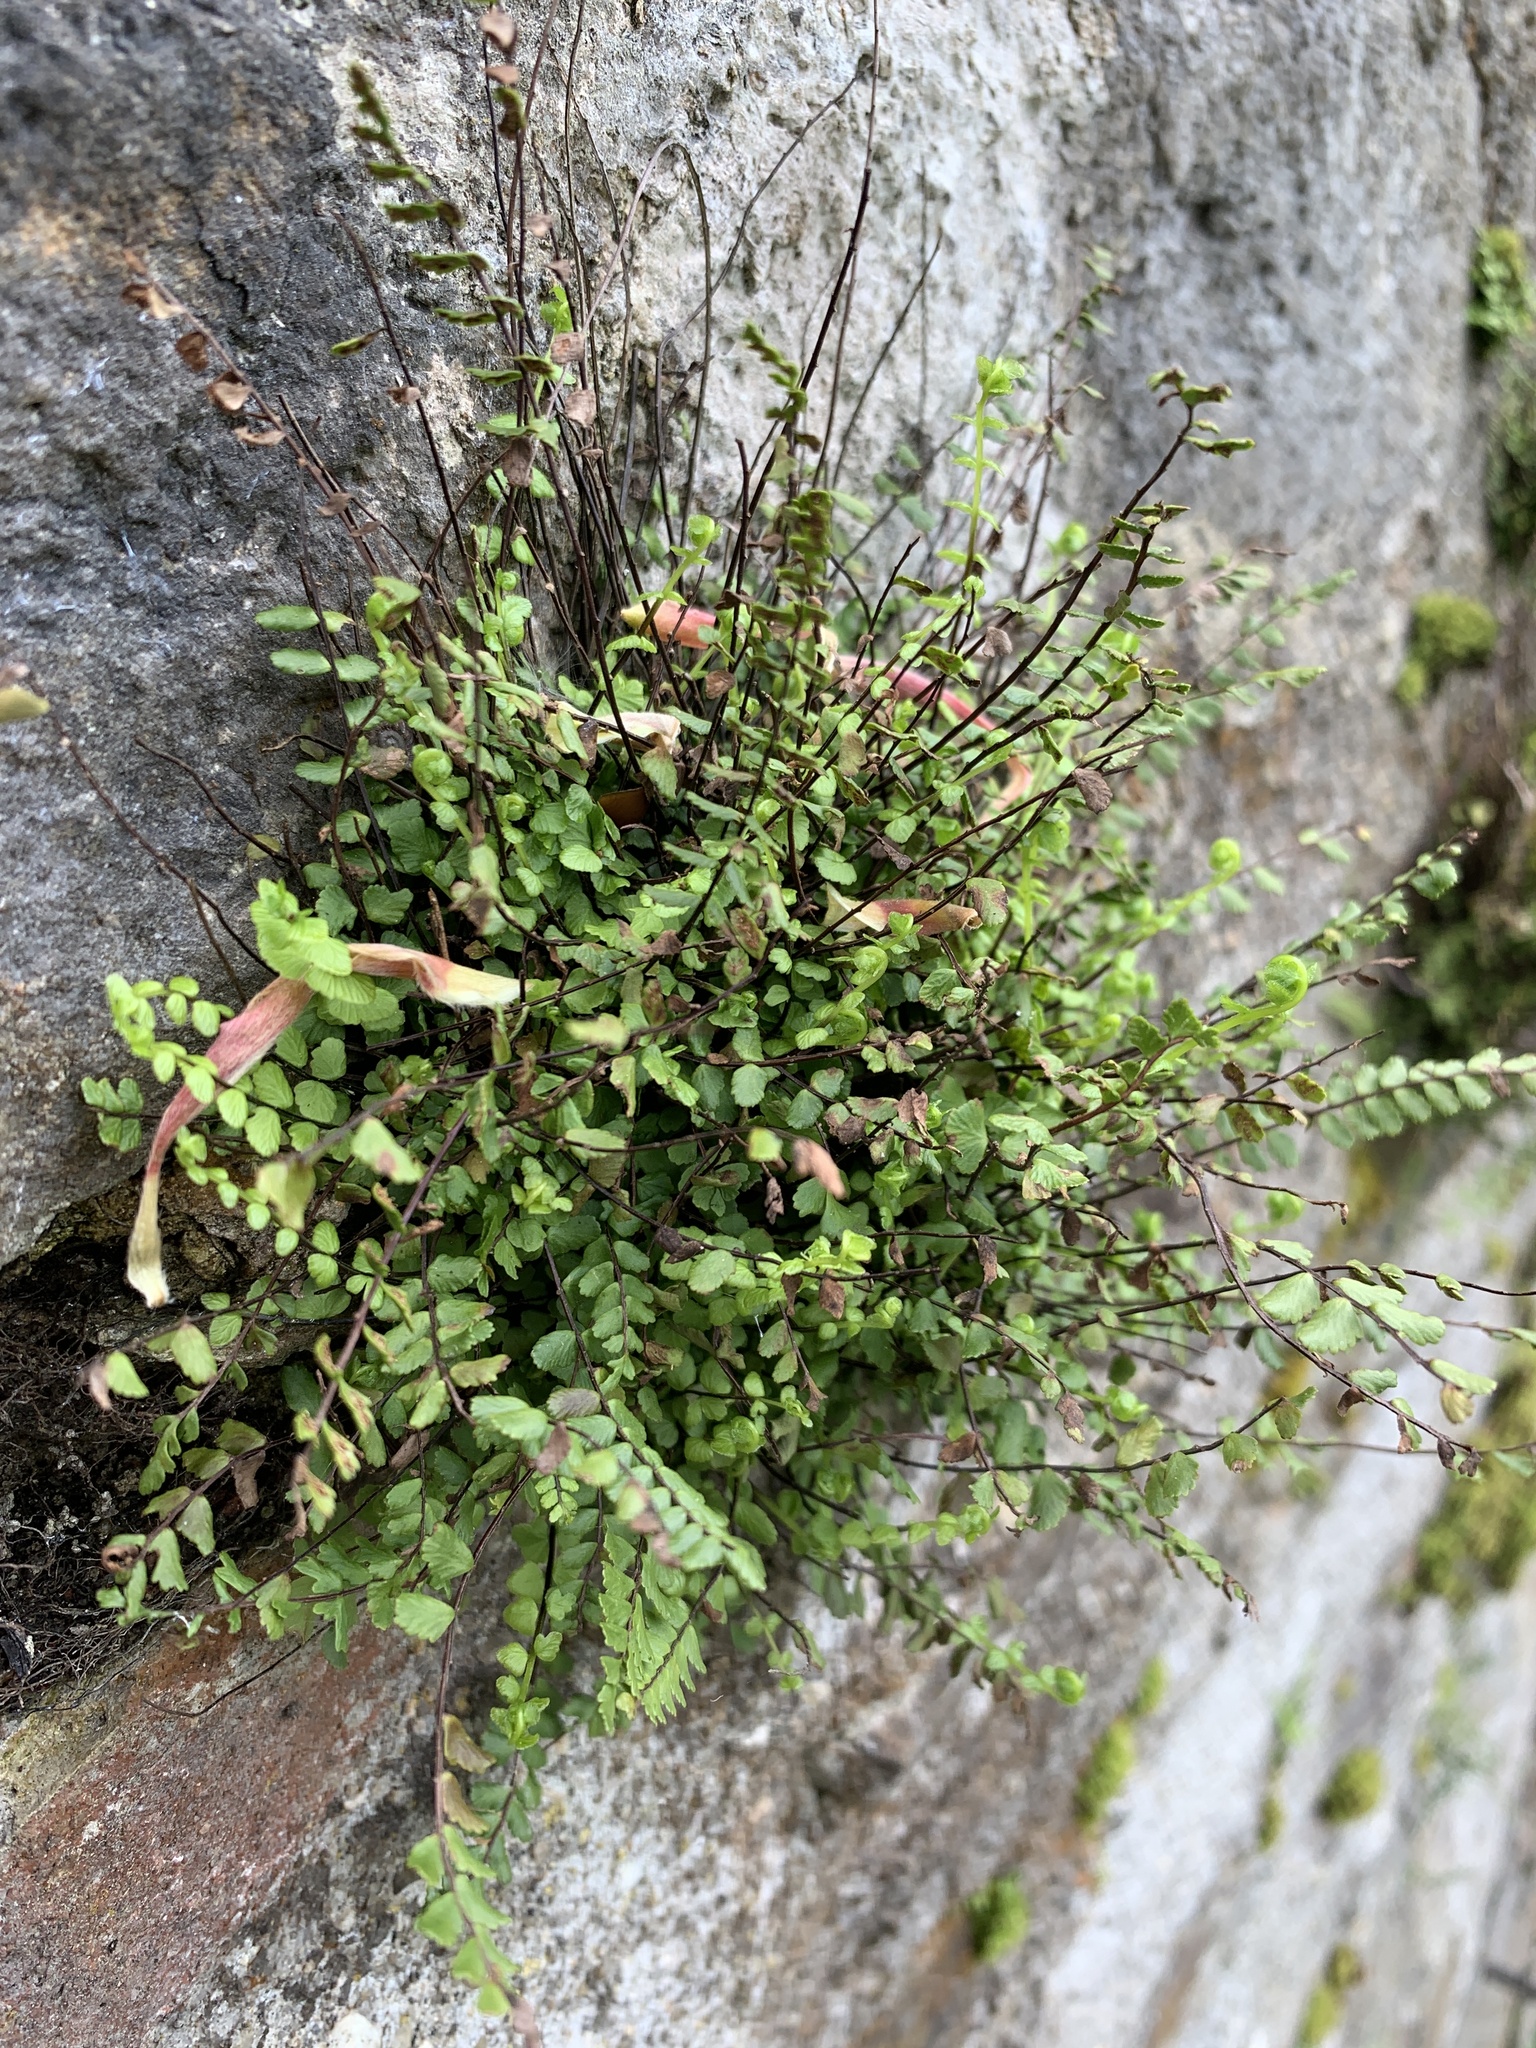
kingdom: Plantae
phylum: Tracheophyta
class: Polypodiopsida
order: Polypodiales
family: Aspleniaceae
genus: Asplenium
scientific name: Asplenium trichomanes
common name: Maidenhair spleenwort
